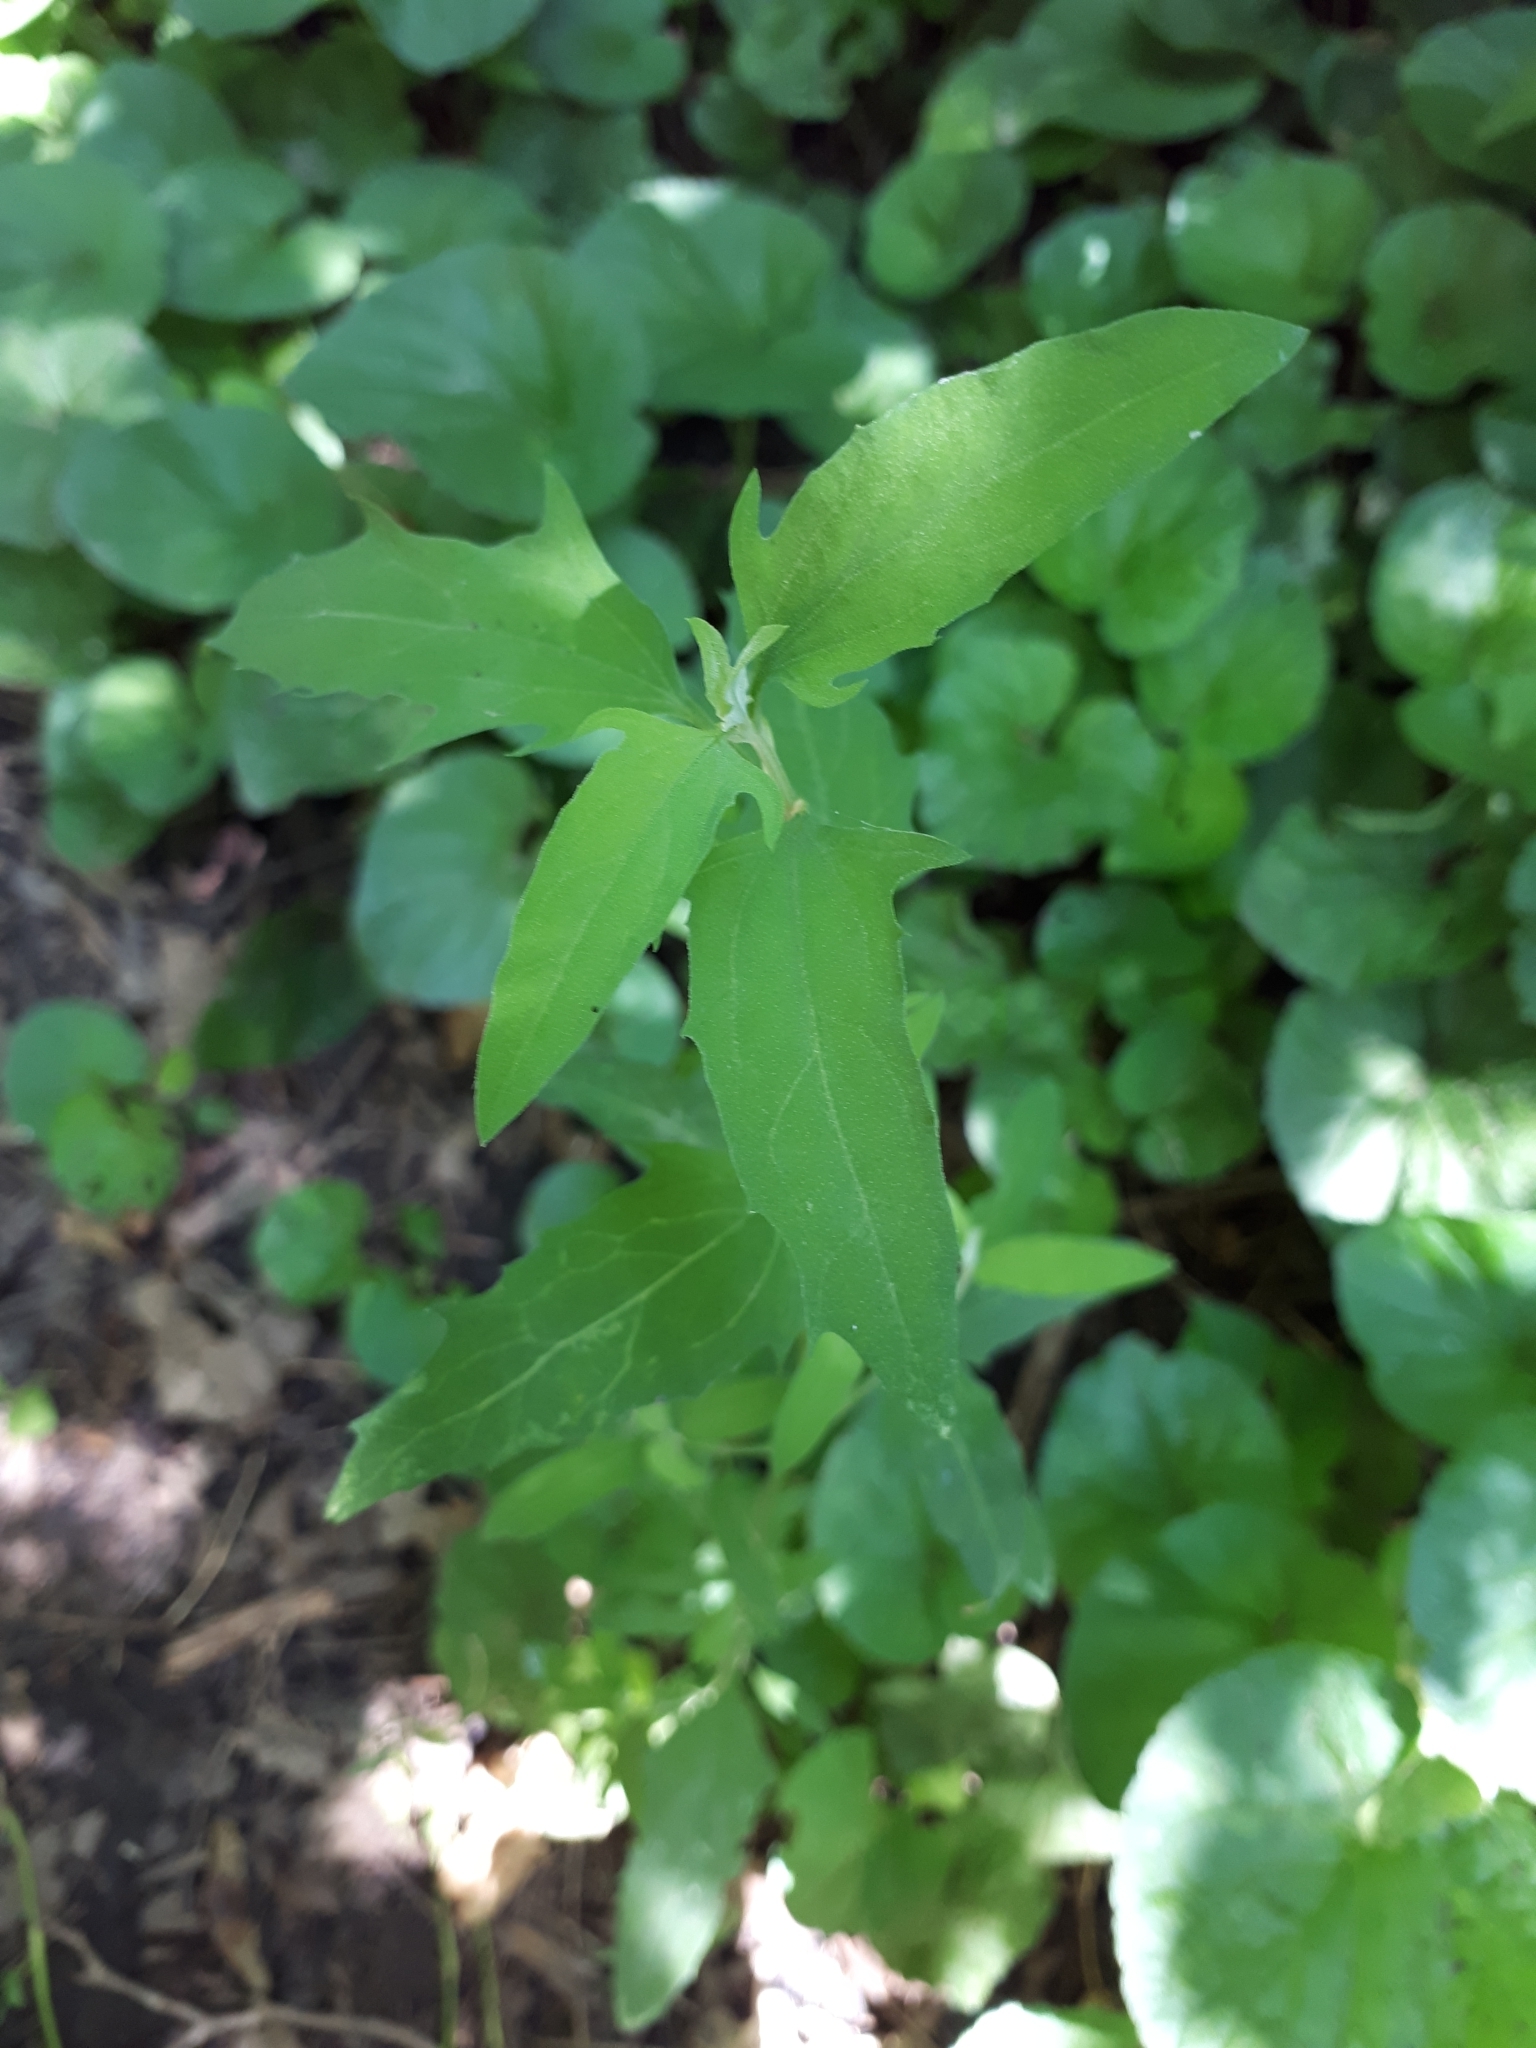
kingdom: Plantae
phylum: Tracheophyta
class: Magnoliopsida
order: Caryophyllales
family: Amaranthaceae
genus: Atriplex
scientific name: Atriplex patula
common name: Common orache
